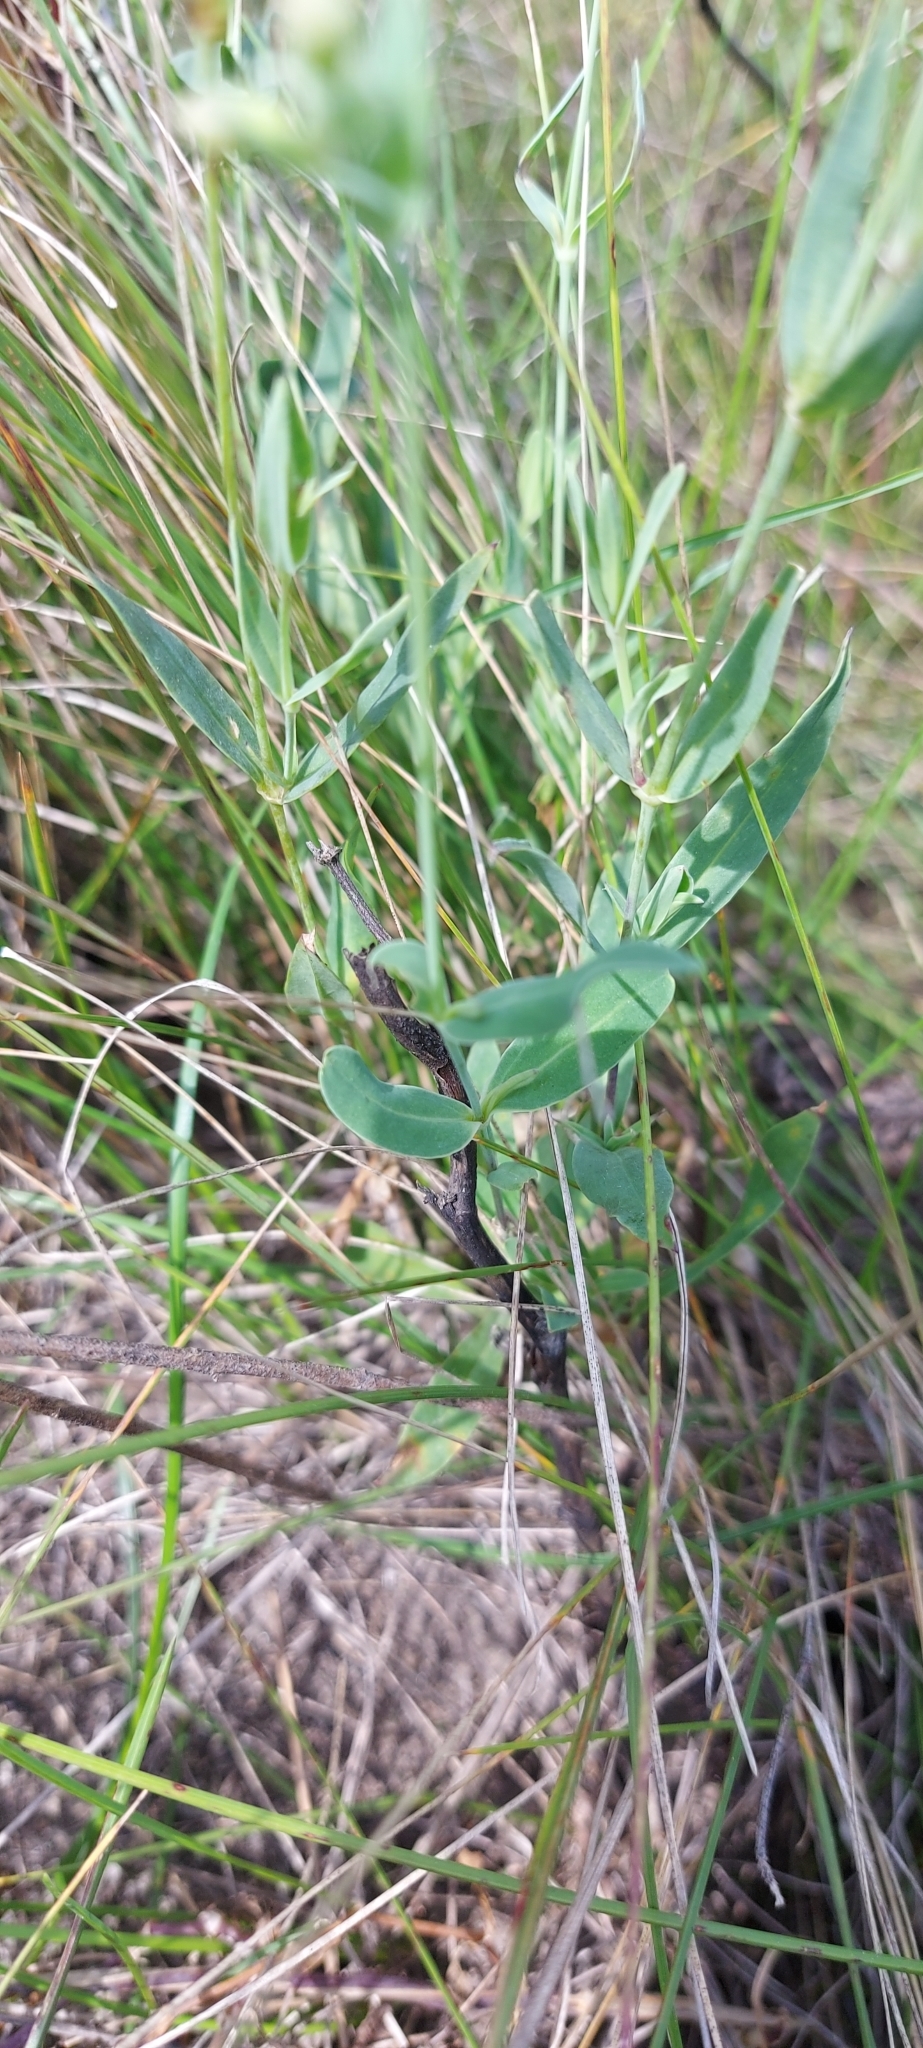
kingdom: Plantae
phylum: Tracheophyta
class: Magnoliopsida
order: Caryophyllales
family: Caryophyllaceae
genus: Silene
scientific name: Silene vulgaris
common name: Bladder campion
